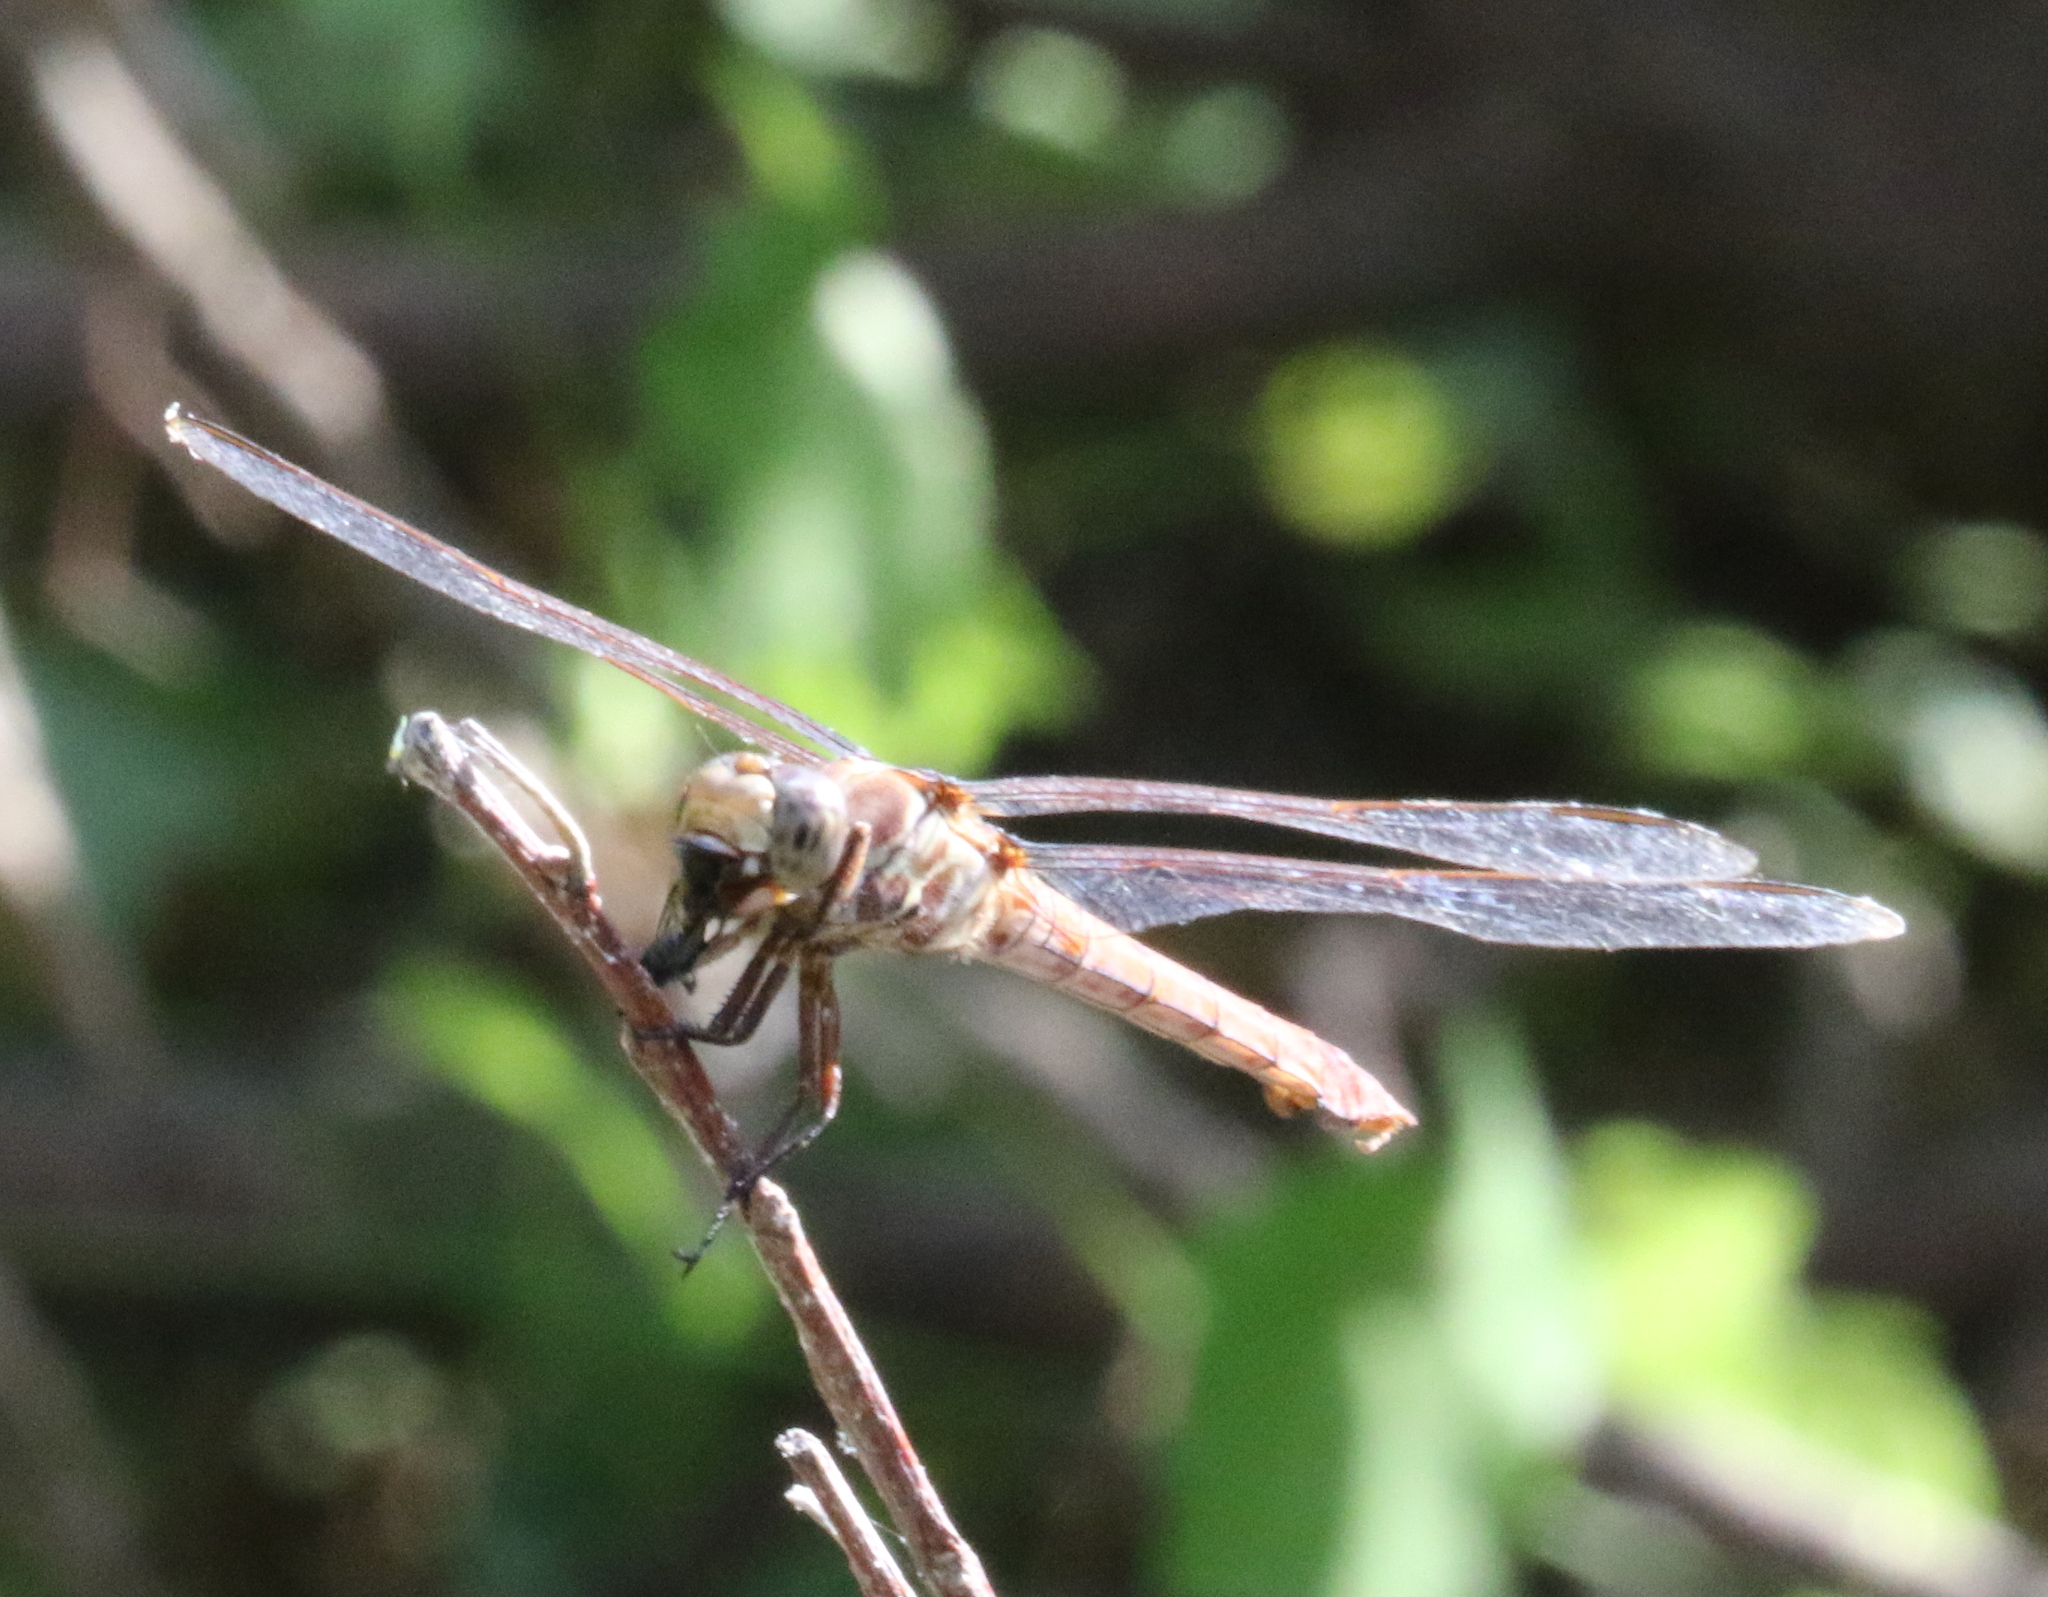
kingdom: Animalia
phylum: Arthropoda
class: Insecta
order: Odonata
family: Libellulidae
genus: Orthemis
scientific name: Orthemis ferruginea
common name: Roseate skimmer
